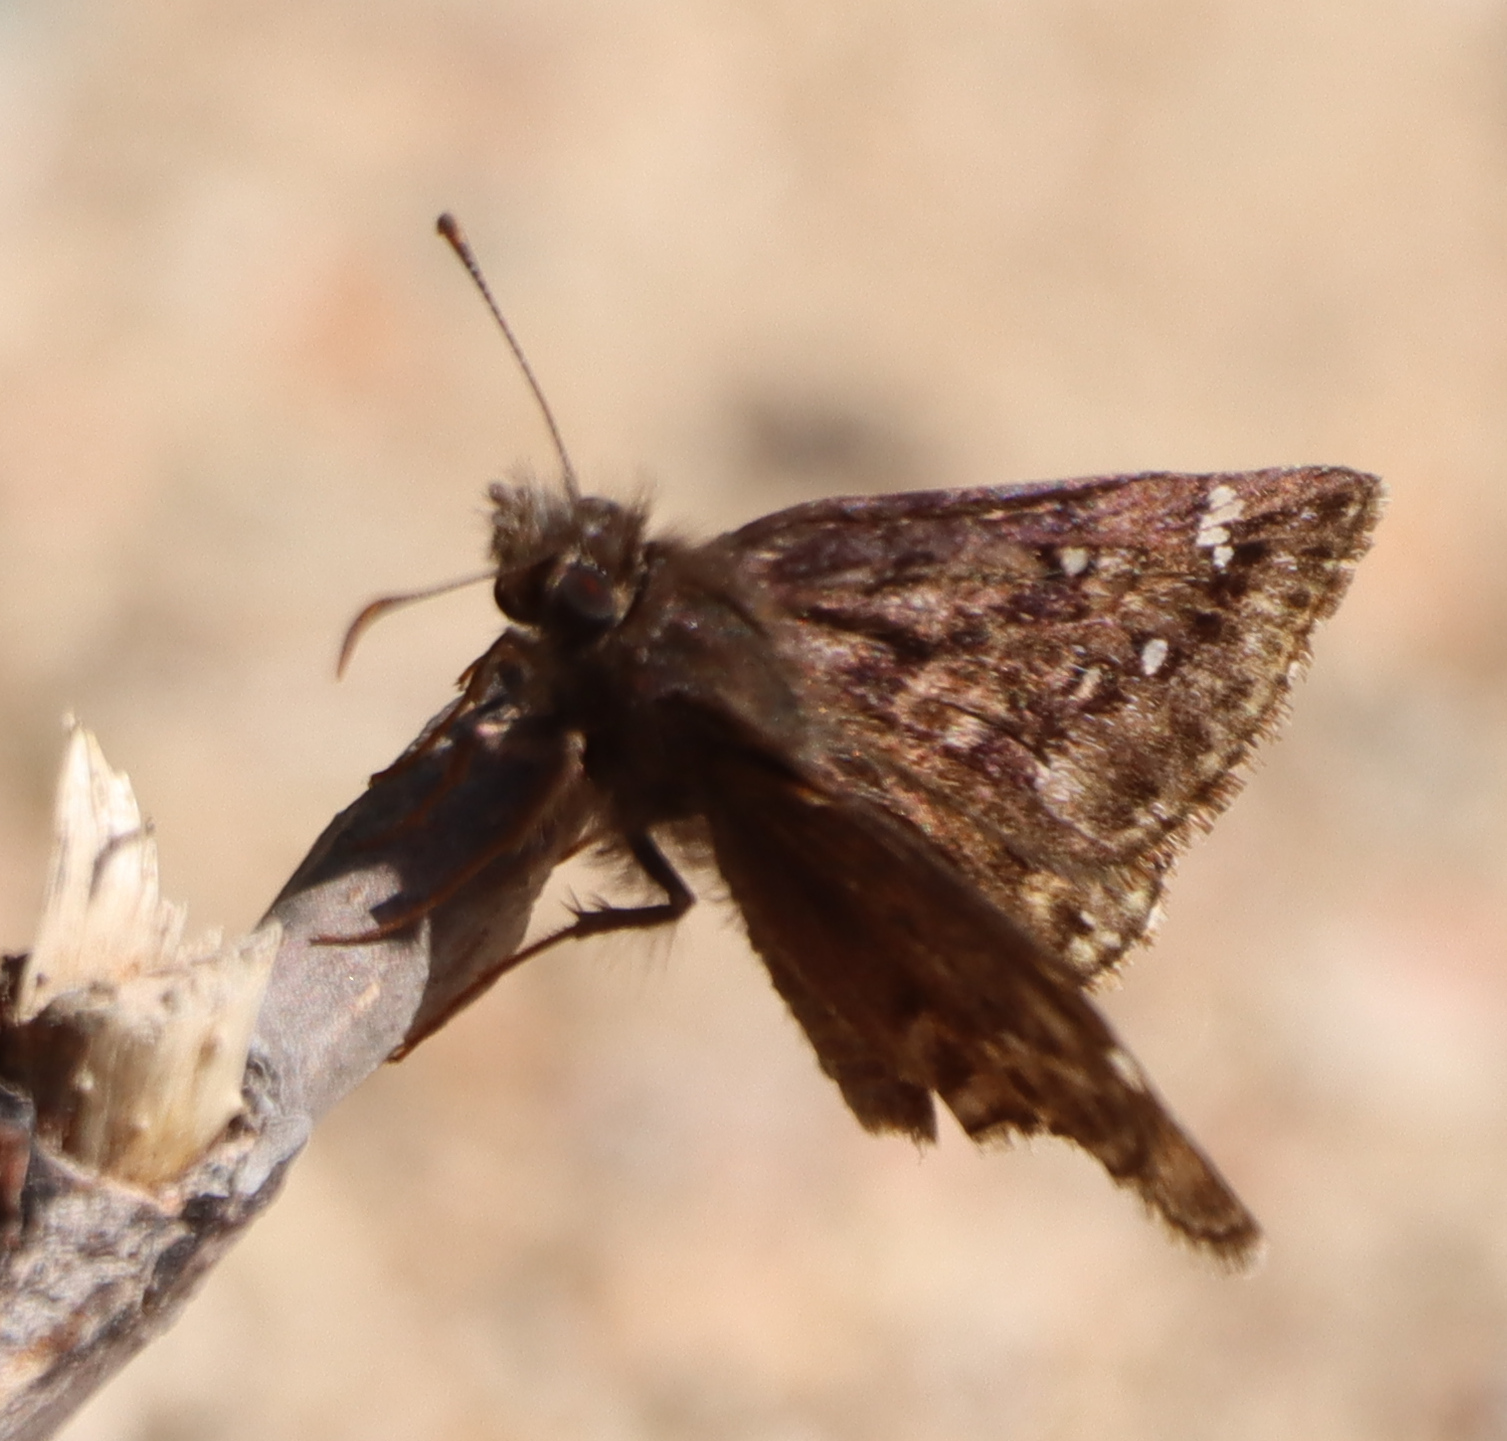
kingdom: Animalia
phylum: Arthropoda
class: Insecta
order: Lepidoptera
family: Hesperiidae
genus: Erynnis
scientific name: Erynnis juvenalis
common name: Juvenal's duskywing
